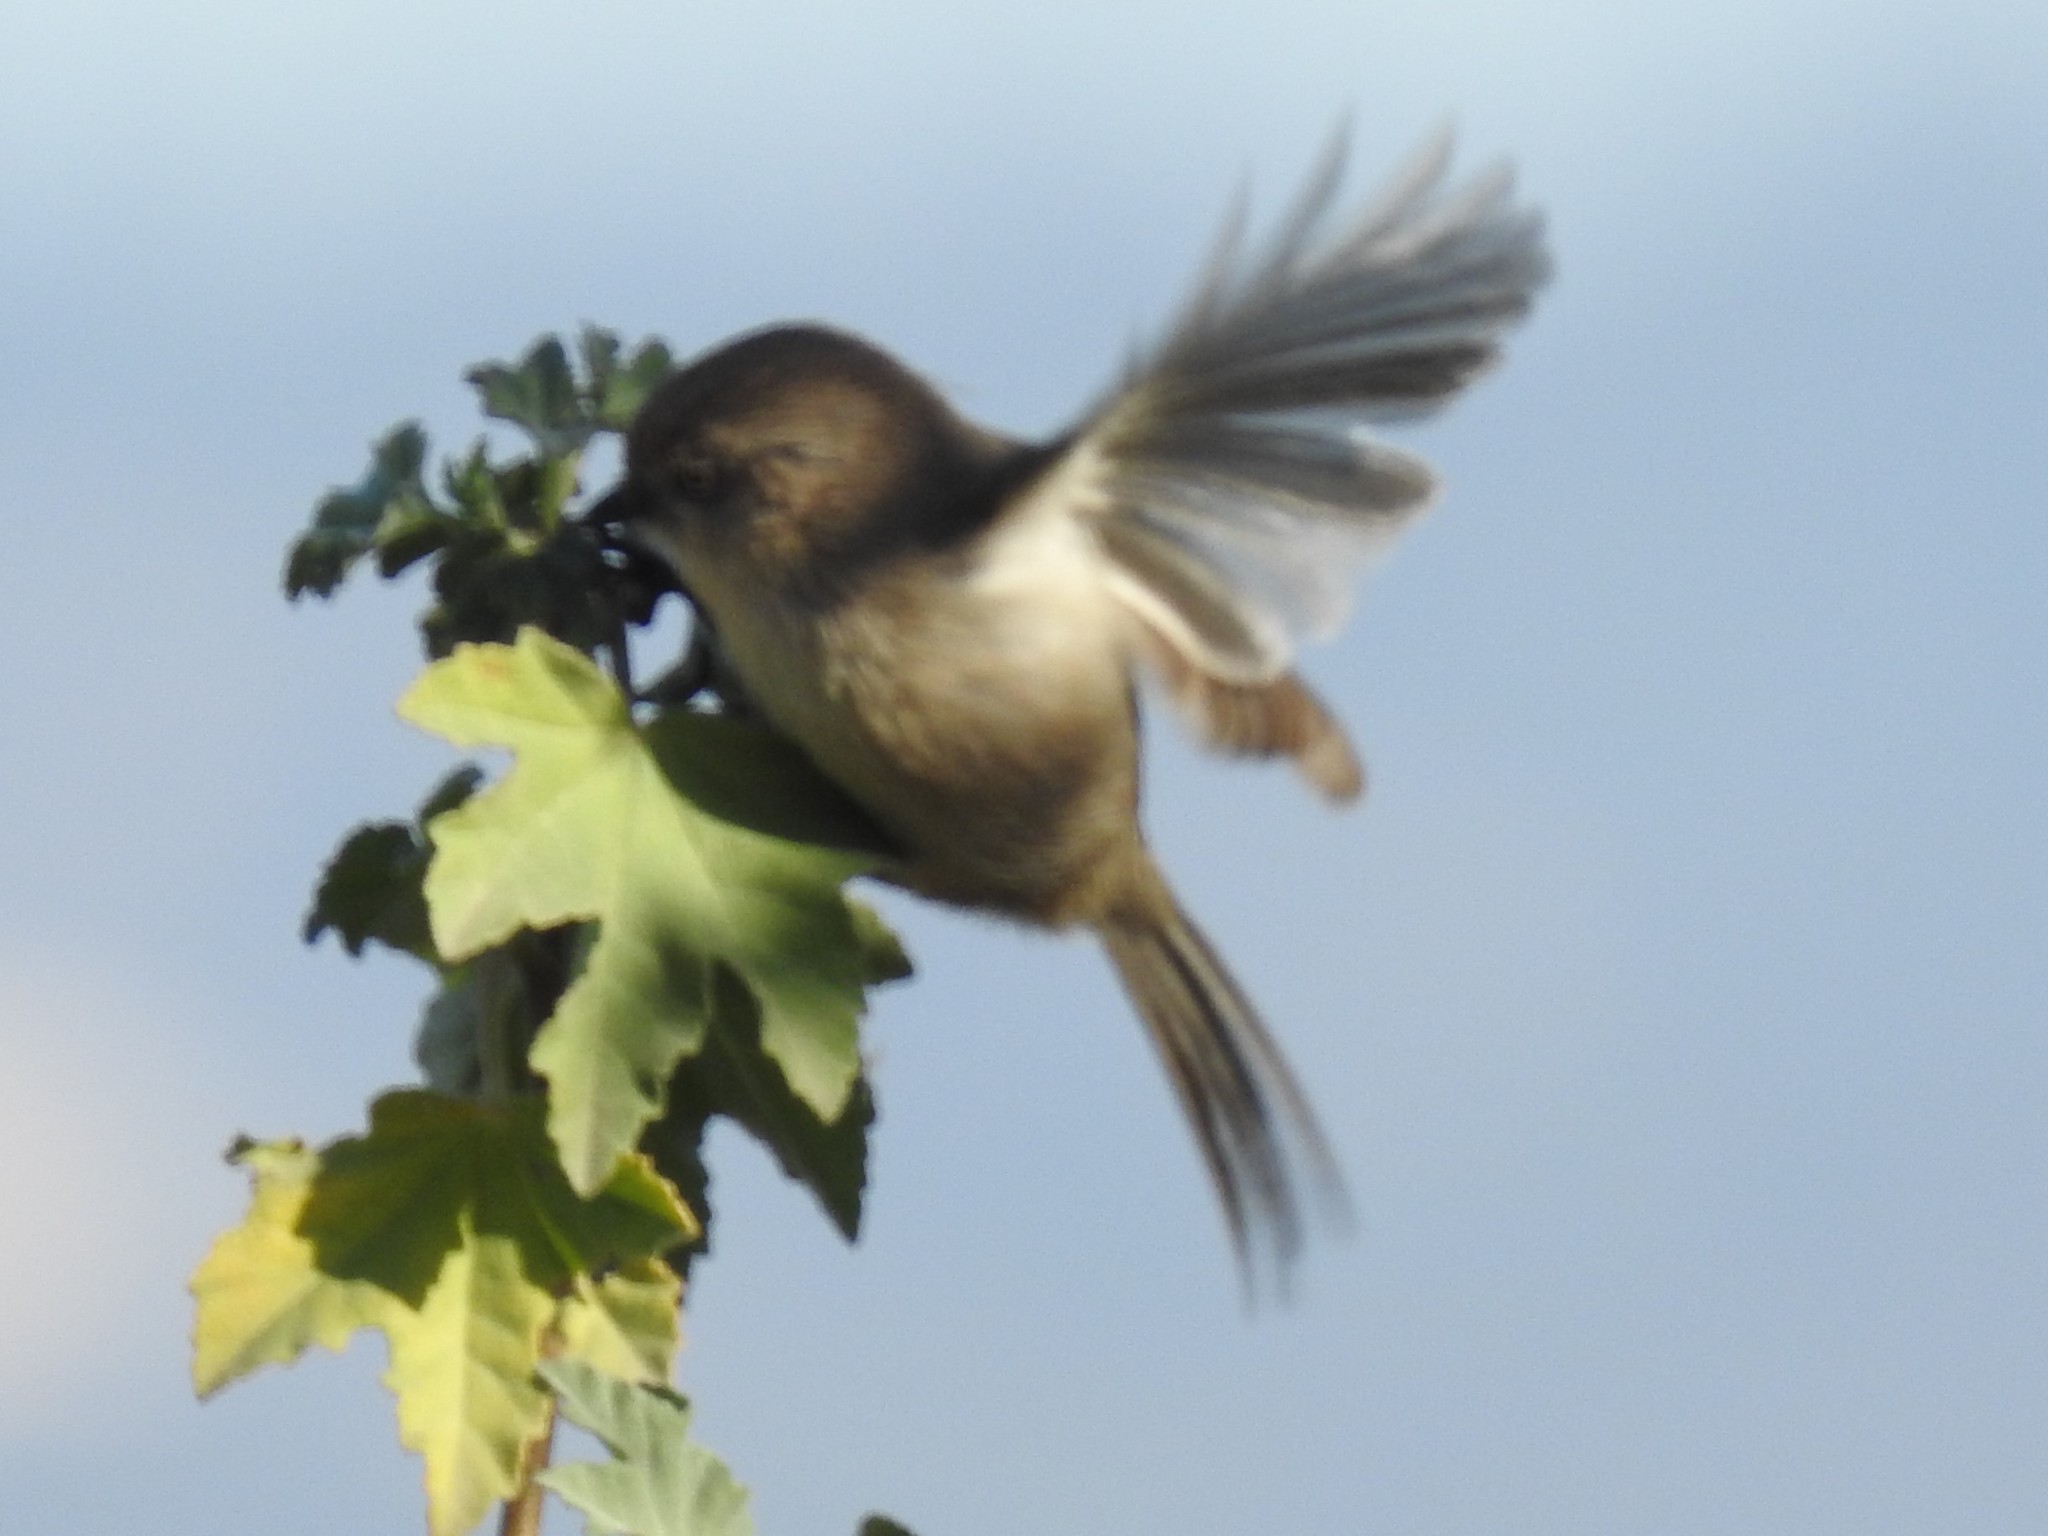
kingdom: Animalia
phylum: Chordata
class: Aves
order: Passeriformes
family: Aegithalidae
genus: Psaltriparus
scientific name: Psaltriparus minimus
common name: American bushtit
